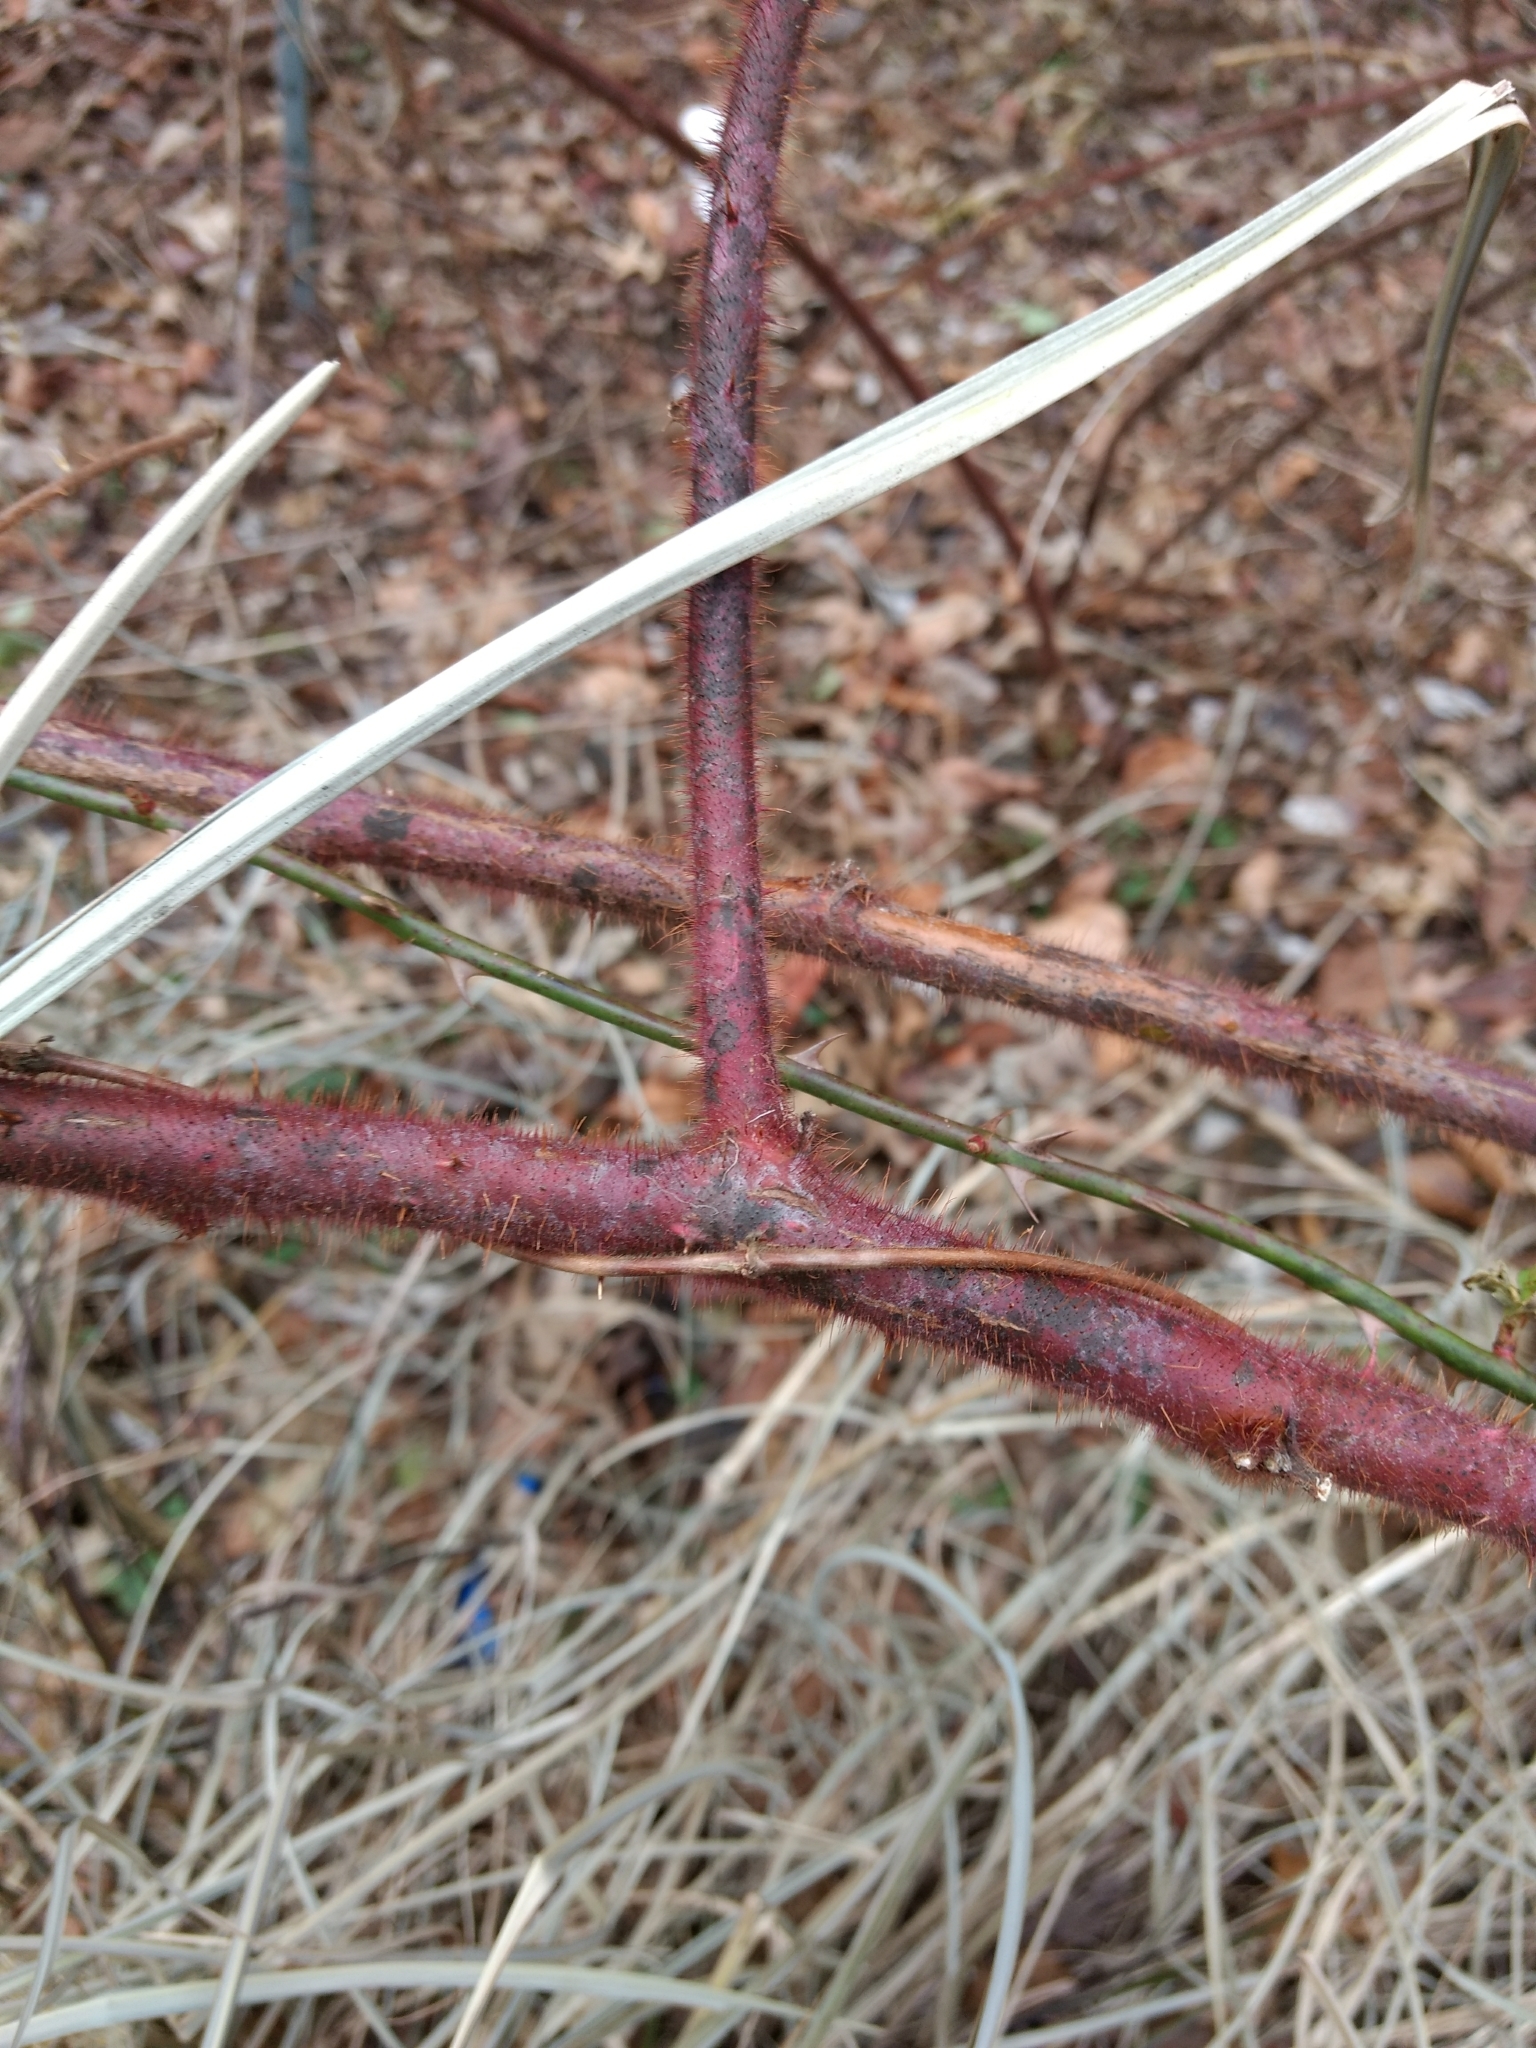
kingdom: Plantae
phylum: Tracheophyta
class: Magnoliopsida
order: Rosales
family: Rosaceae
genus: Rubus
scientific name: Rubus phoenicolasius
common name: Japanese wineberry
